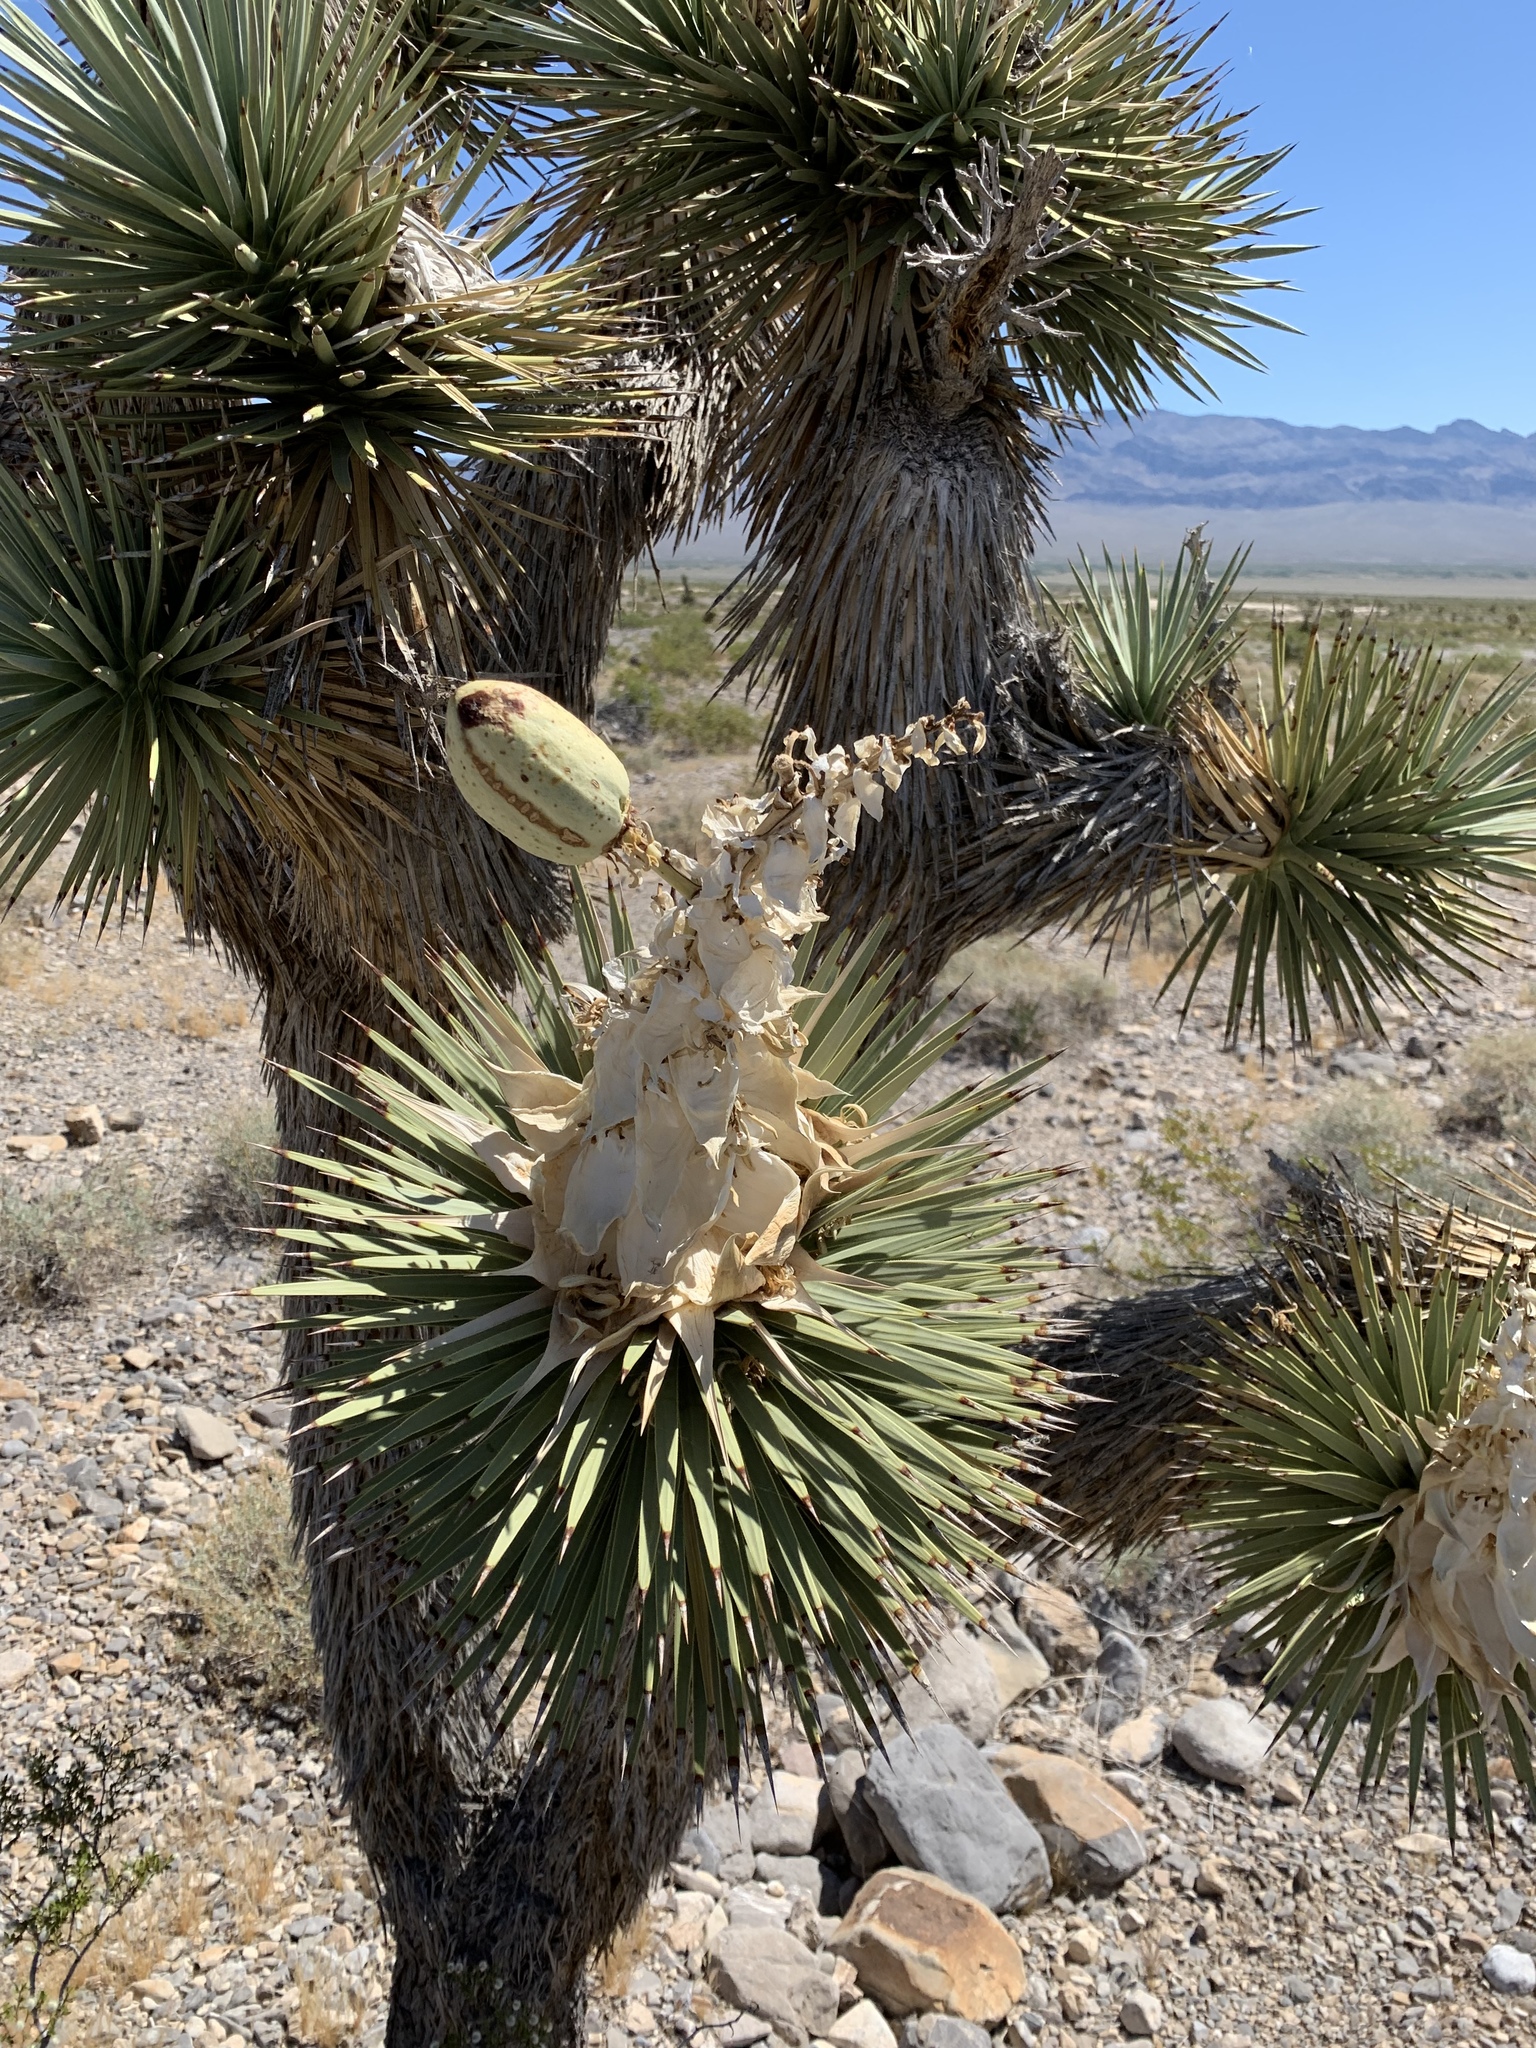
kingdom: Plantae
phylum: Tracheophyta
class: Liliopsida
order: Asparagales
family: Asparagaceae
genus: Yucca
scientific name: Yucca brevifolia
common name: Joshua tree
